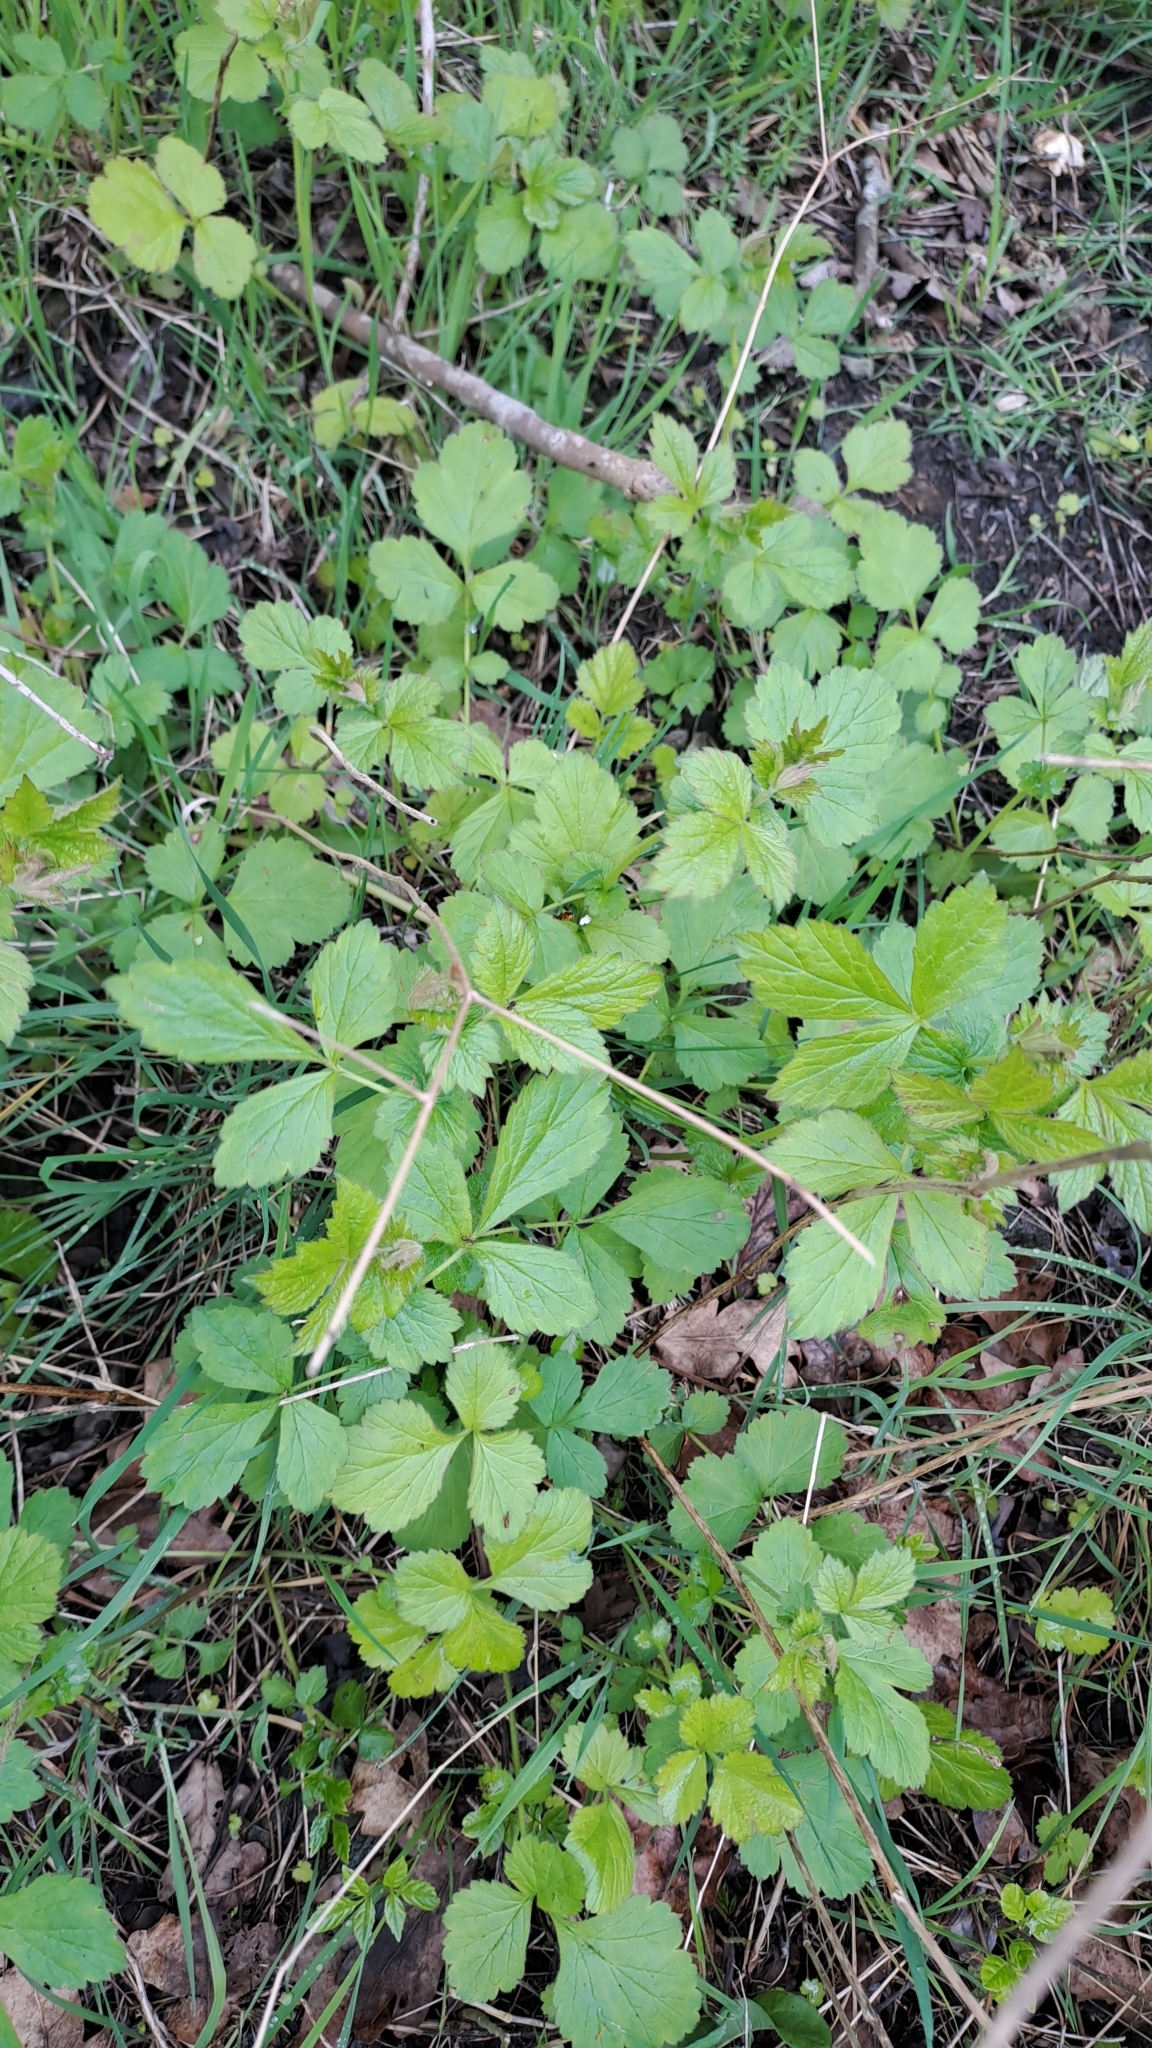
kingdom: Plantae
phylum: Tracheophyta
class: Magnoliopsida
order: Rosales
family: Rosaceae
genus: Geum
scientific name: Geum urbanum
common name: Wood avens
